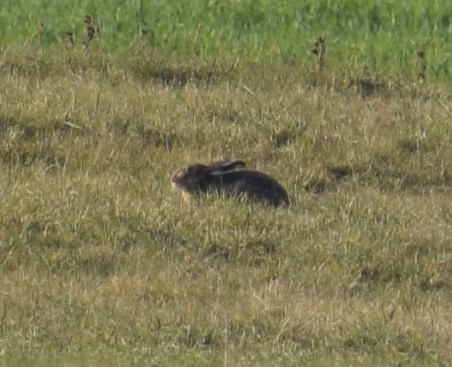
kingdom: Animalia
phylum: Chordata
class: Mammalia
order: Lagomorpha
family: Leporidae
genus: Lepus
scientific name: Lepus europaeus
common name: European hare
